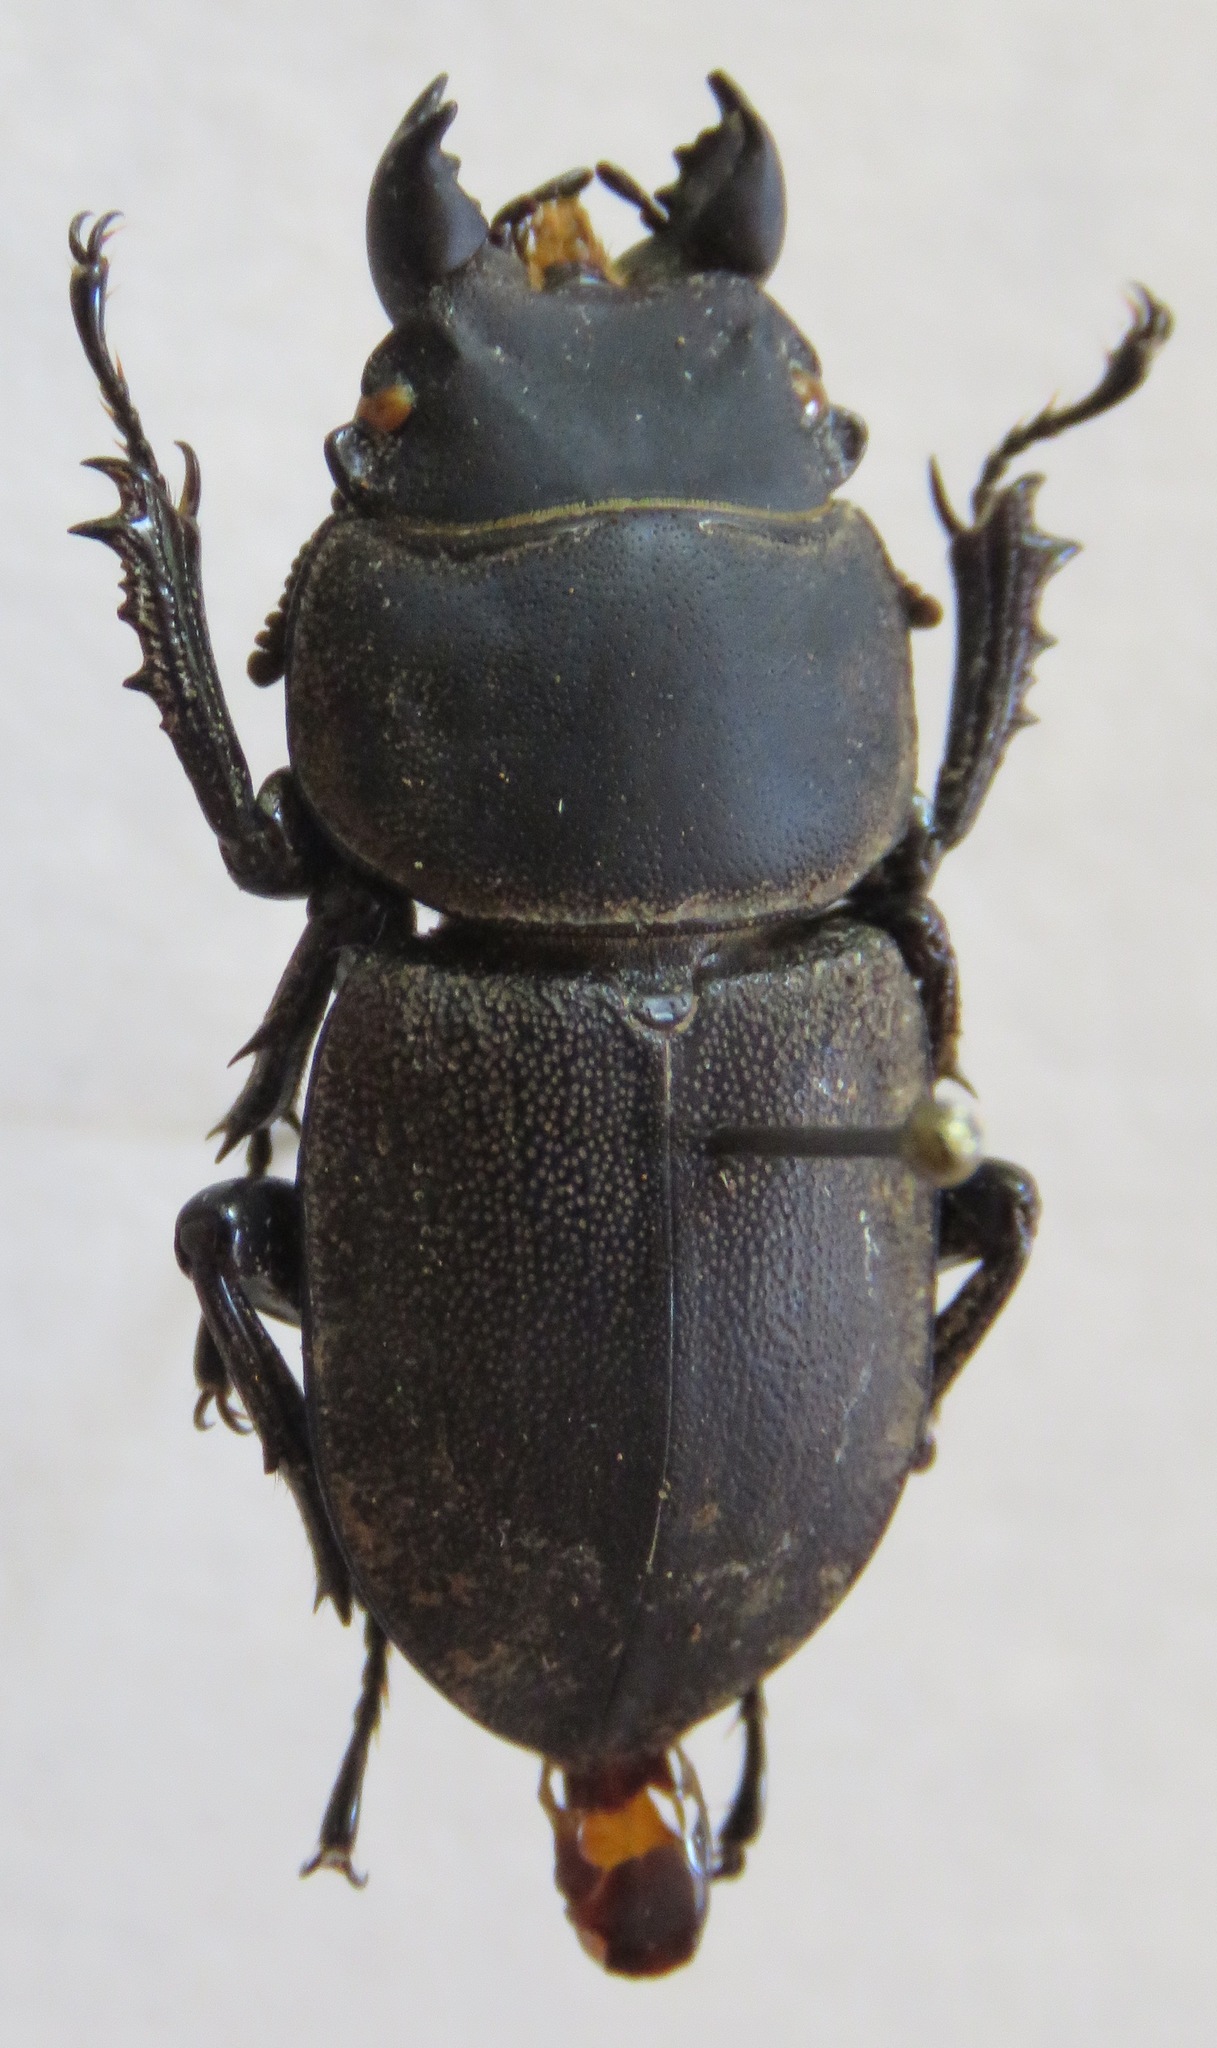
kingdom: Animalia
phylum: Arthropoda
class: Insecta
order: Coleoptera
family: Lucanidae
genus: Apterodorcus
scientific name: Apterodorcus bacchus
